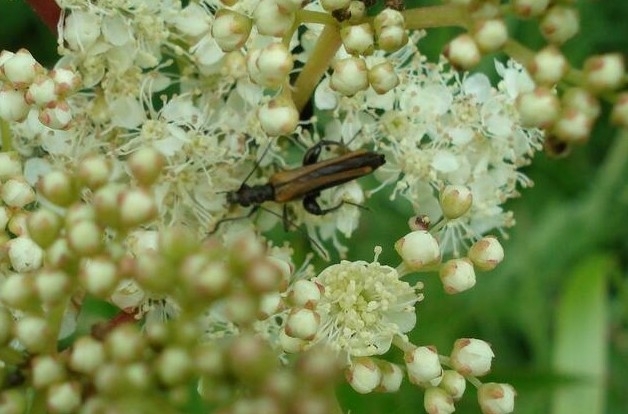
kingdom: Animalia
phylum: Arthropoda
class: Insecta
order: Coleoptera
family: Oedemeridae
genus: Oedemera
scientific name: Oedemera femorata
